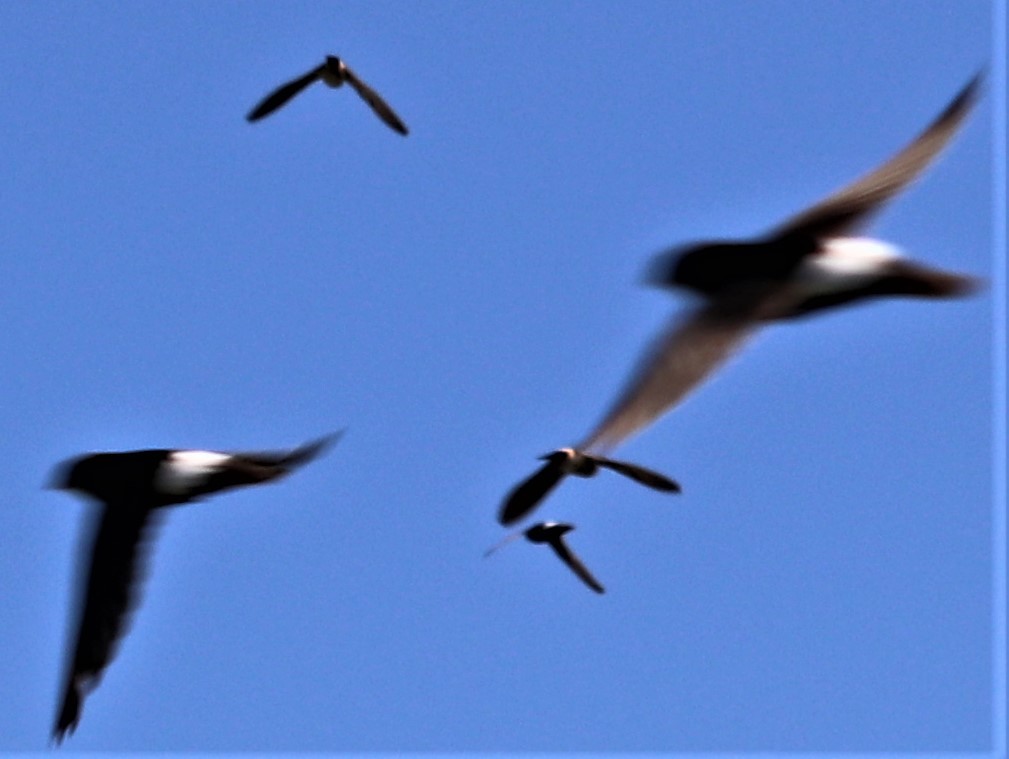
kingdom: Animalia
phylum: Chordata
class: Aves
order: Apodiformes
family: Apodidae
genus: Apus
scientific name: Apus affinis
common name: Little swift
